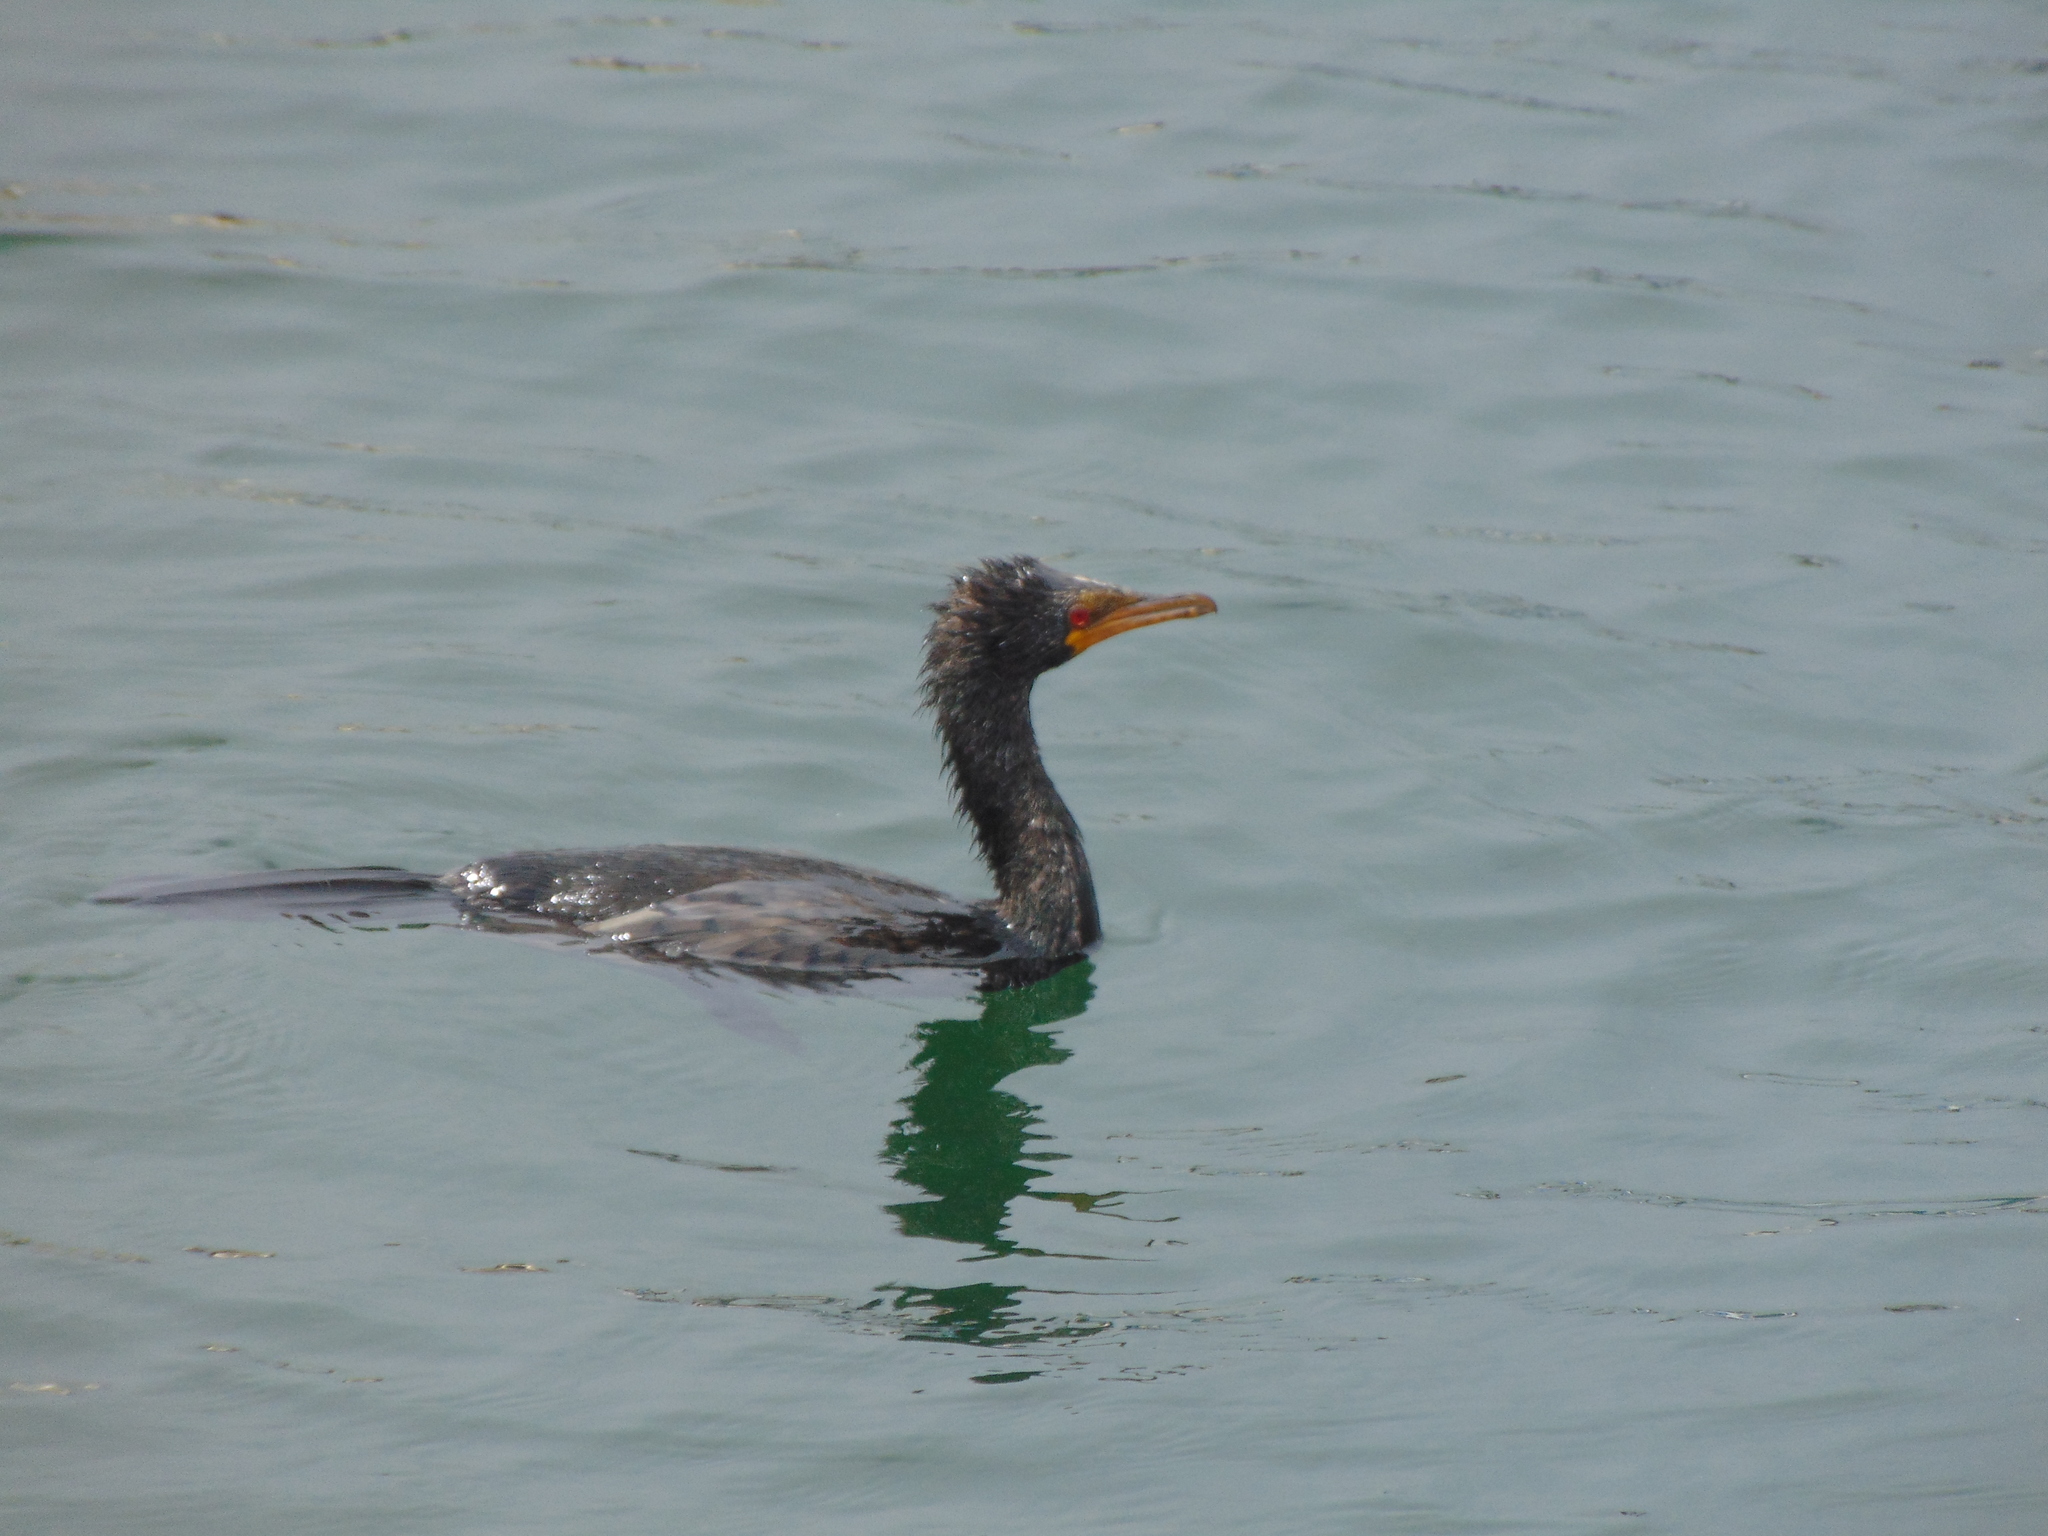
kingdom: Animalia
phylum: Chordata
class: Aves
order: Suliformes
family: Phalacrocoracidae
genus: Microcarbo
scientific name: Microcarbo africanus
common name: Long-tailed cormorant
